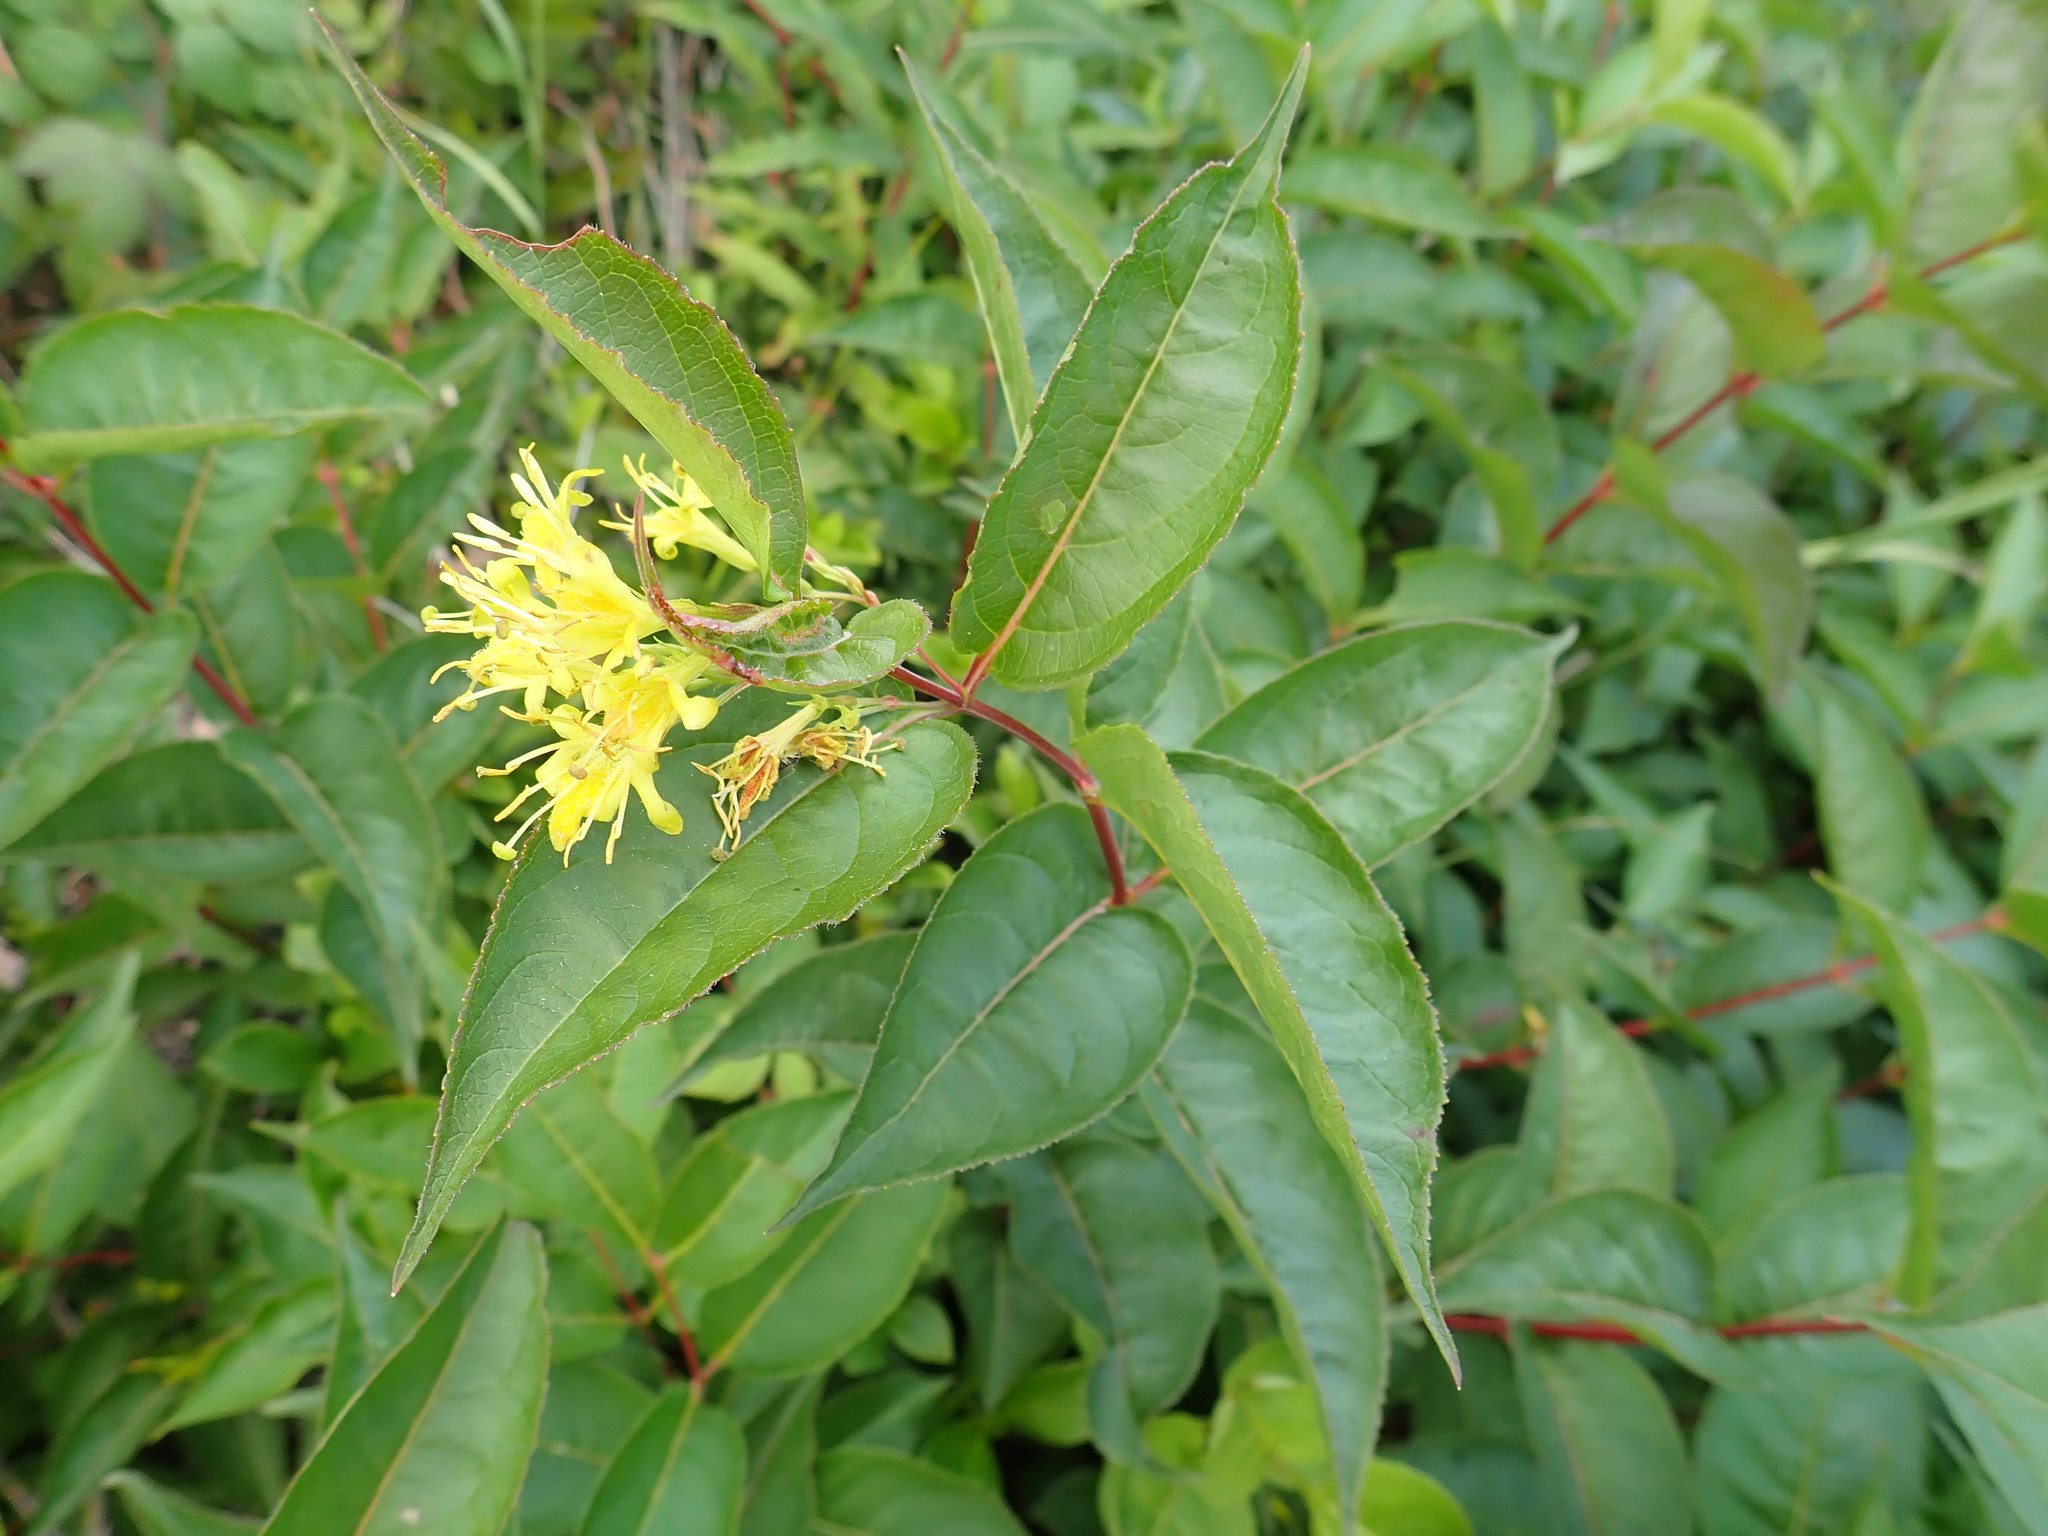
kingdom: Plantae
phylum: Tracheophyta
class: Magnoliopsida
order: Dipsacales
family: Caprifoliaceae
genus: Diervilla
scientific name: Diervilla lonicera
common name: Bush-honeysuckle
